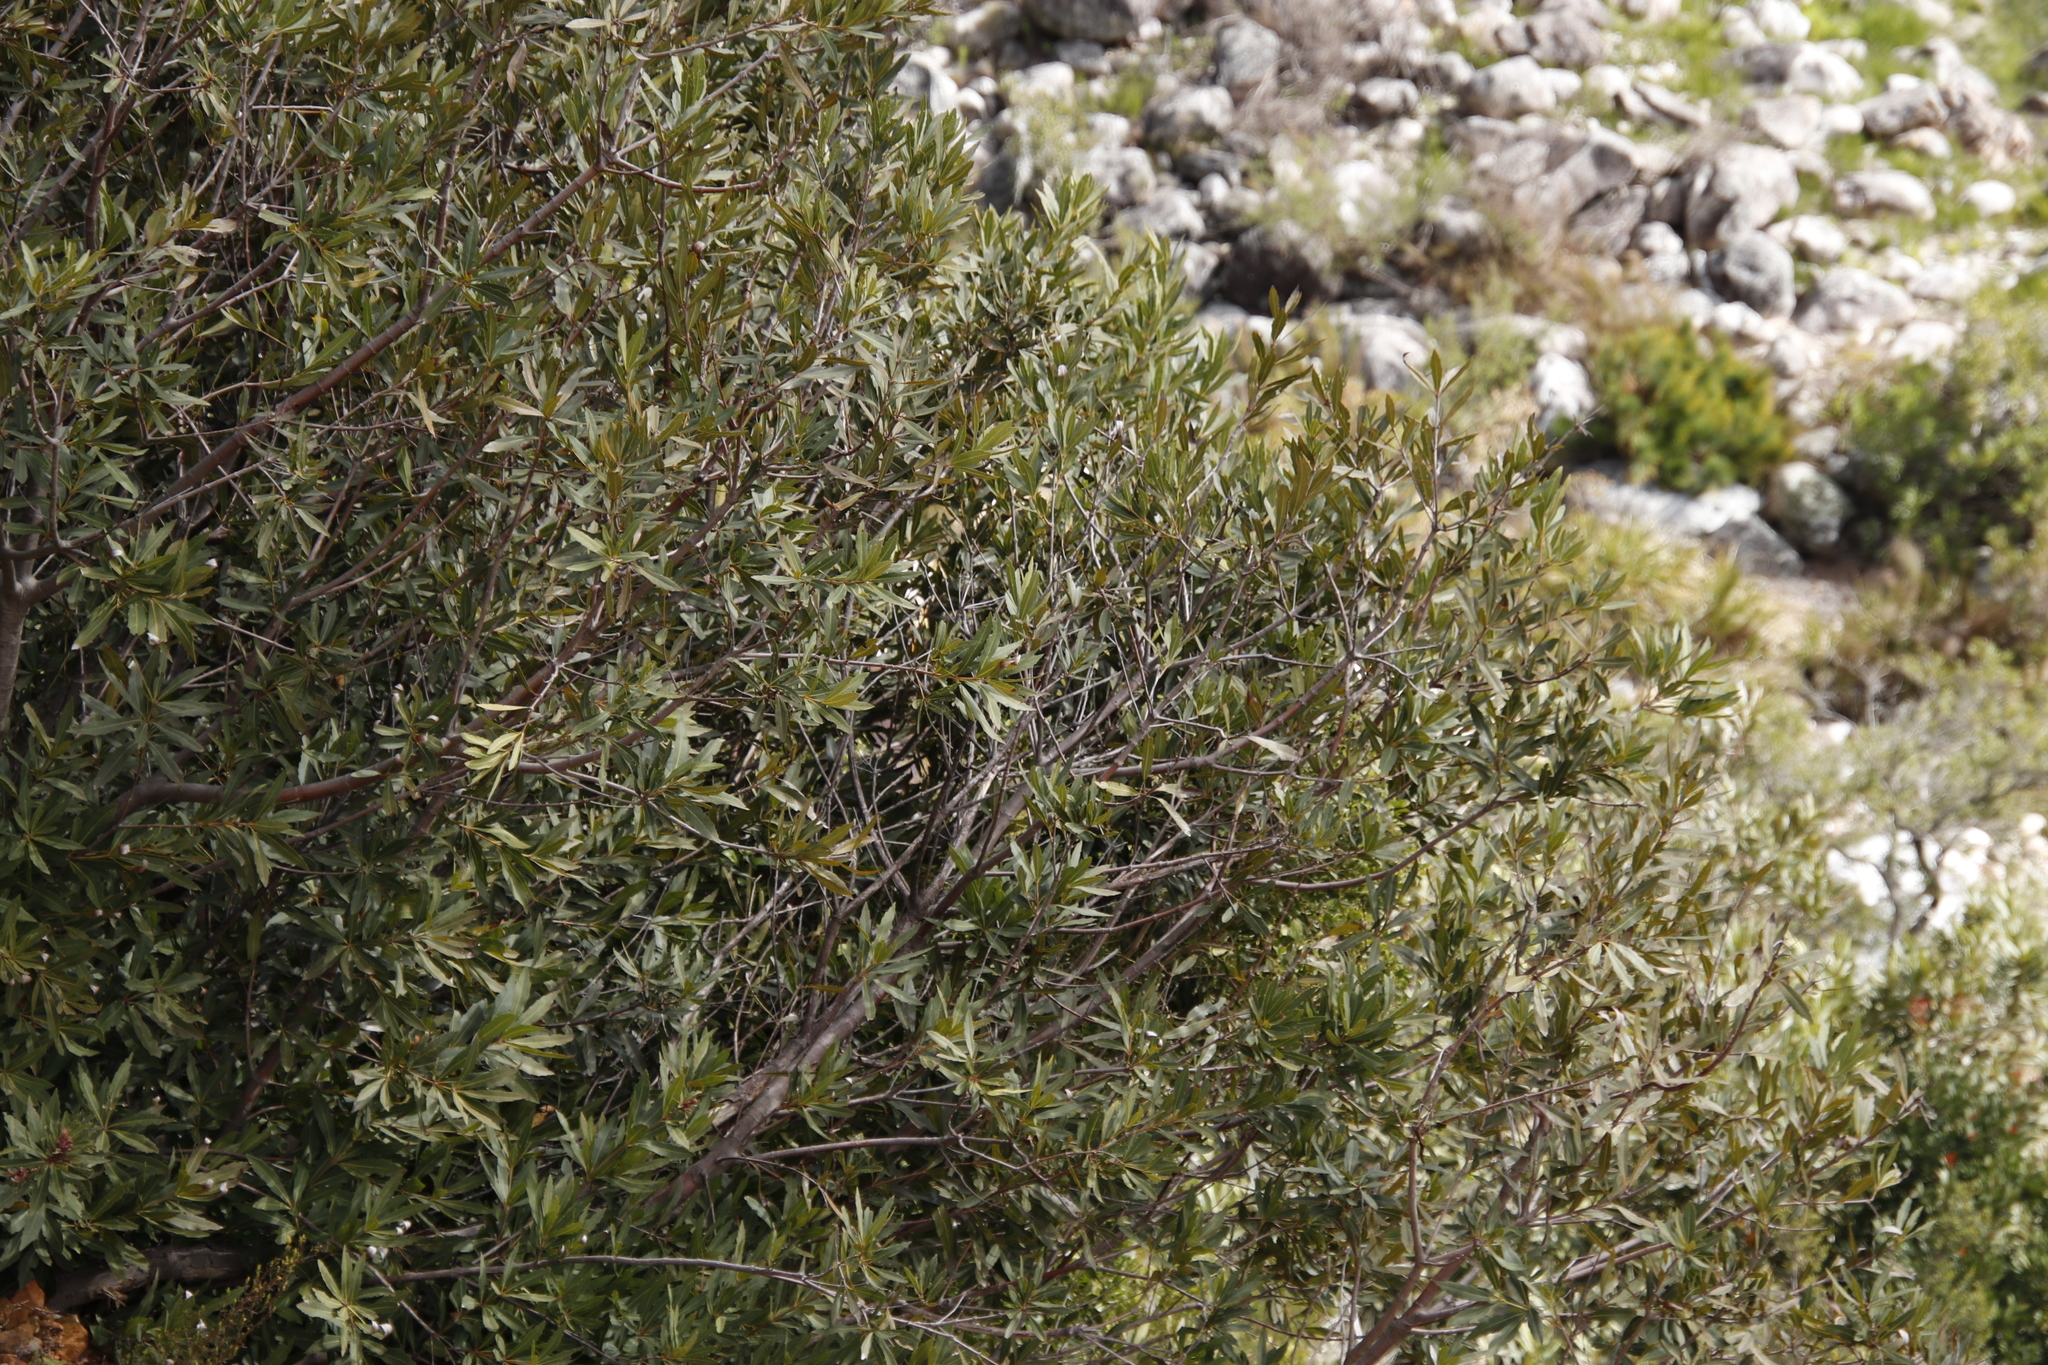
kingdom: Plantae
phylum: Tracheophyta
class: Magnoliopsida
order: Proteales
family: Proteaceae
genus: Brabejum
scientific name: Brabejum stellatifolium
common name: Wild almond
